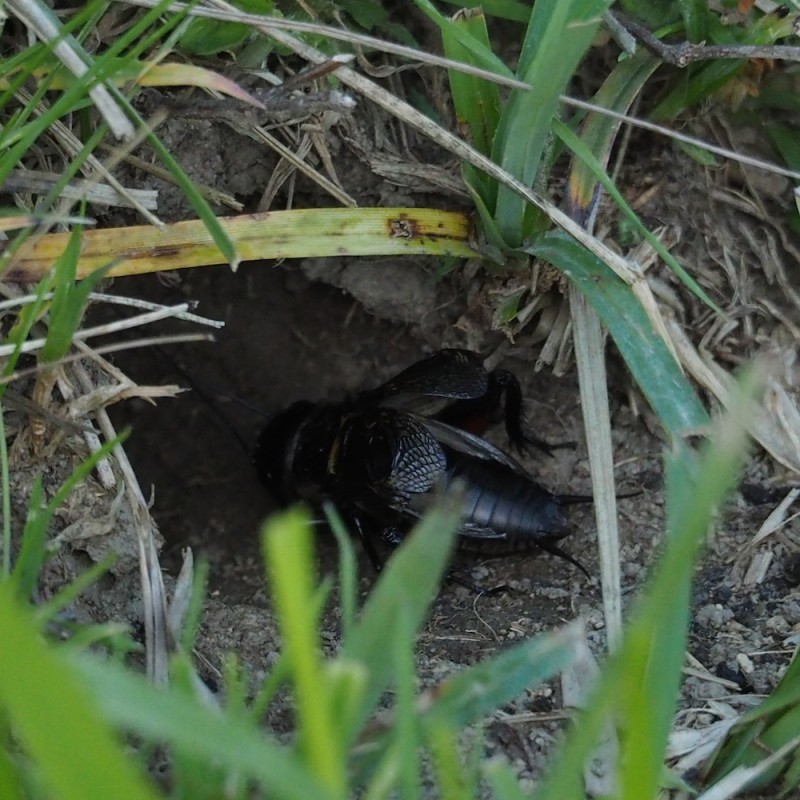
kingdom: Animalia
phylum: Arthropoda
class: Insecta
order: Orthoptera
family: Gryllidae
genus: Gryllus
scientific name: Gryllus campestris
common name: Field cricket
